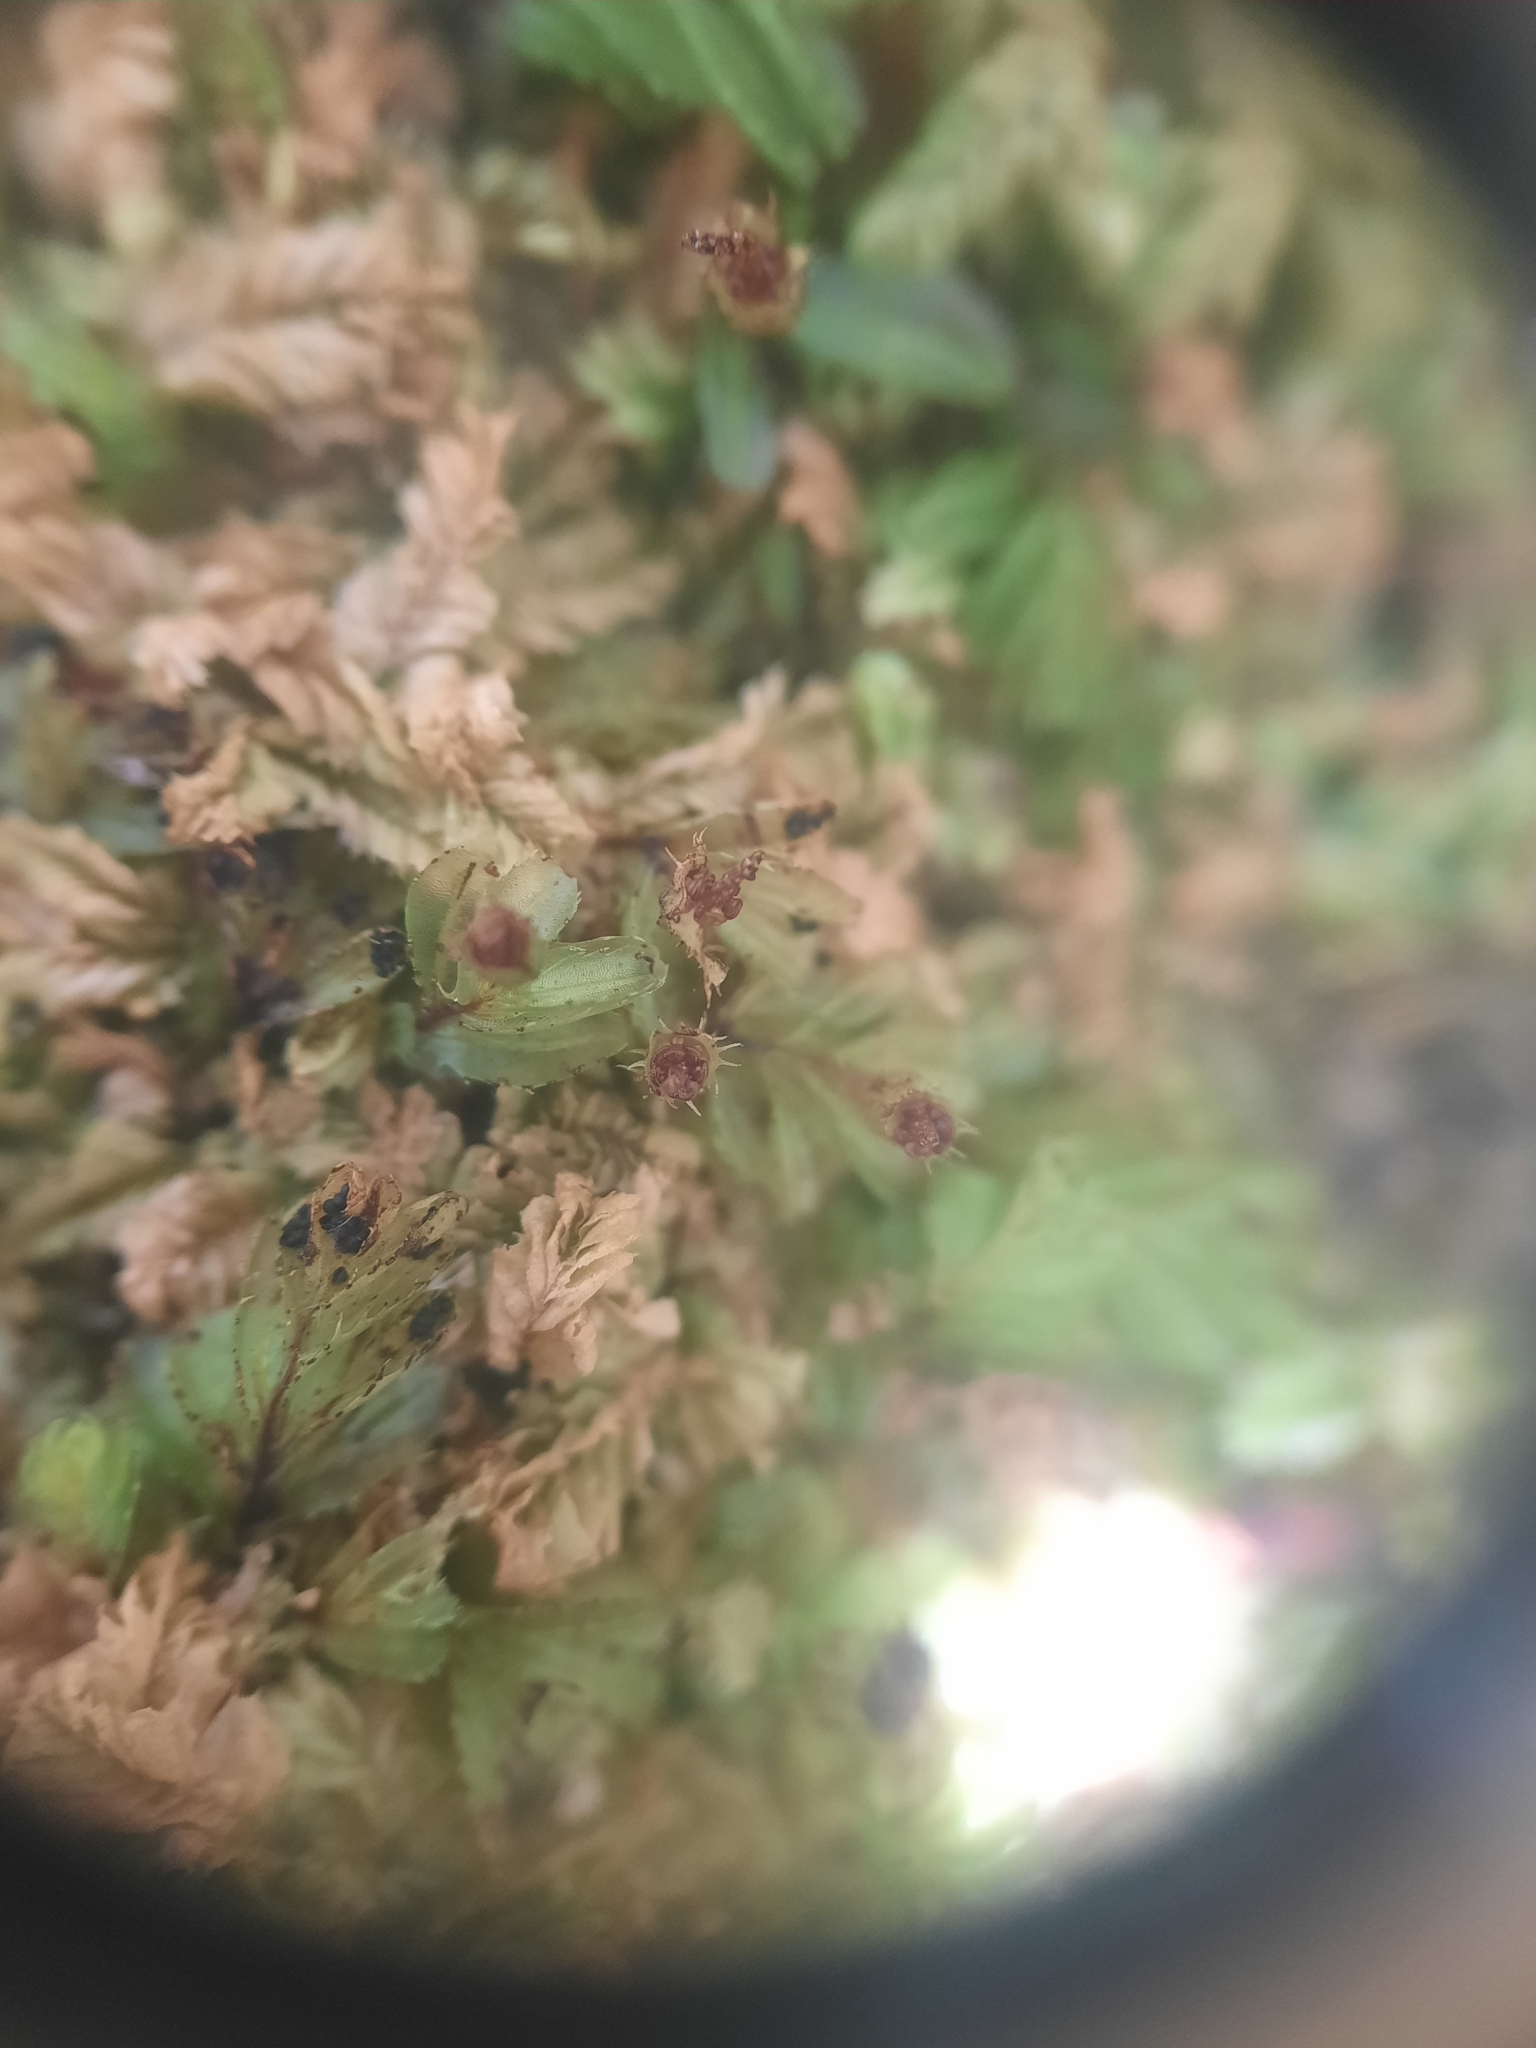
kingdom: Plantae
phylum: Tracheophyta
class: Polypodiopsida
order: Hymenophyllales
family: Hymenophyllaceae
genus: Hymenophyllum
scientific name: Hymenophyllum minimum
